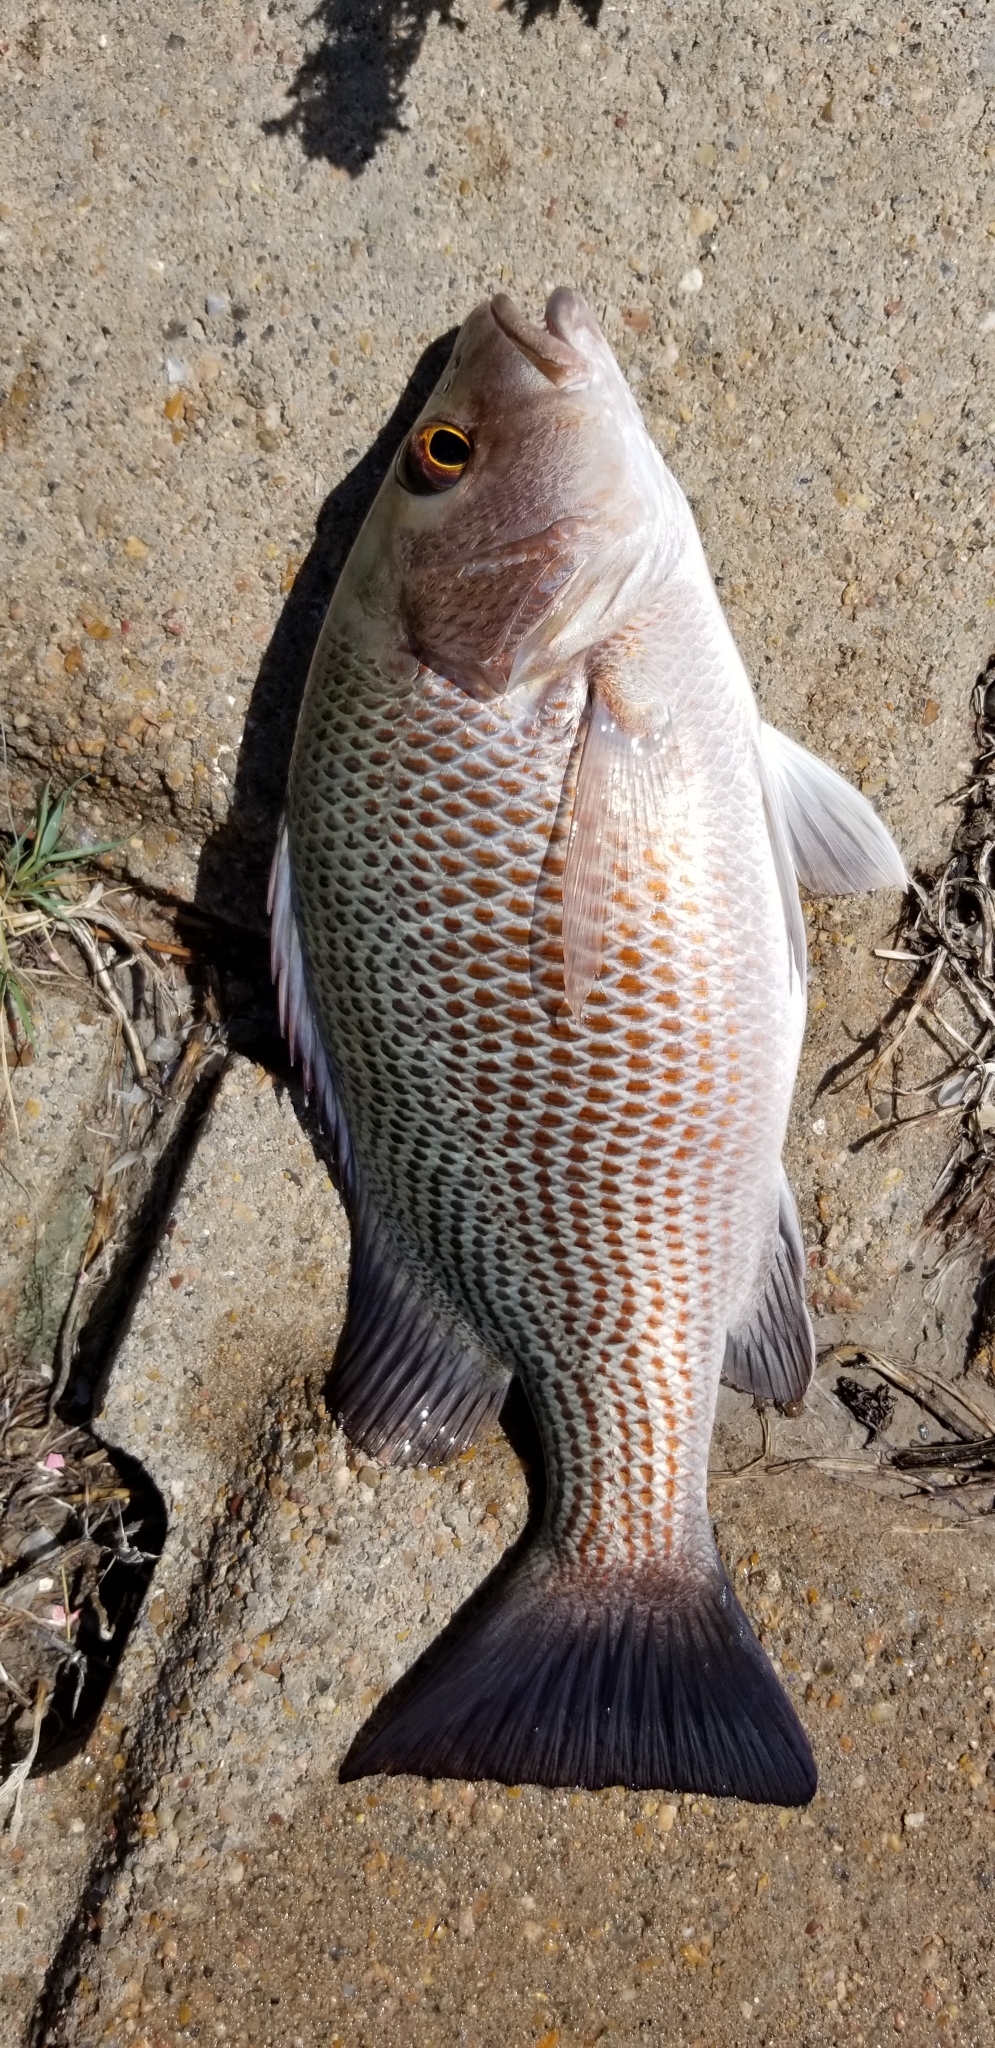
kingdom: Animalia
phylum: Chordata
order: Perciformes
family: Lutjanidae
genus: Lutjanus
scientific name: Lutjanus griseus
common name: Gray snapper
